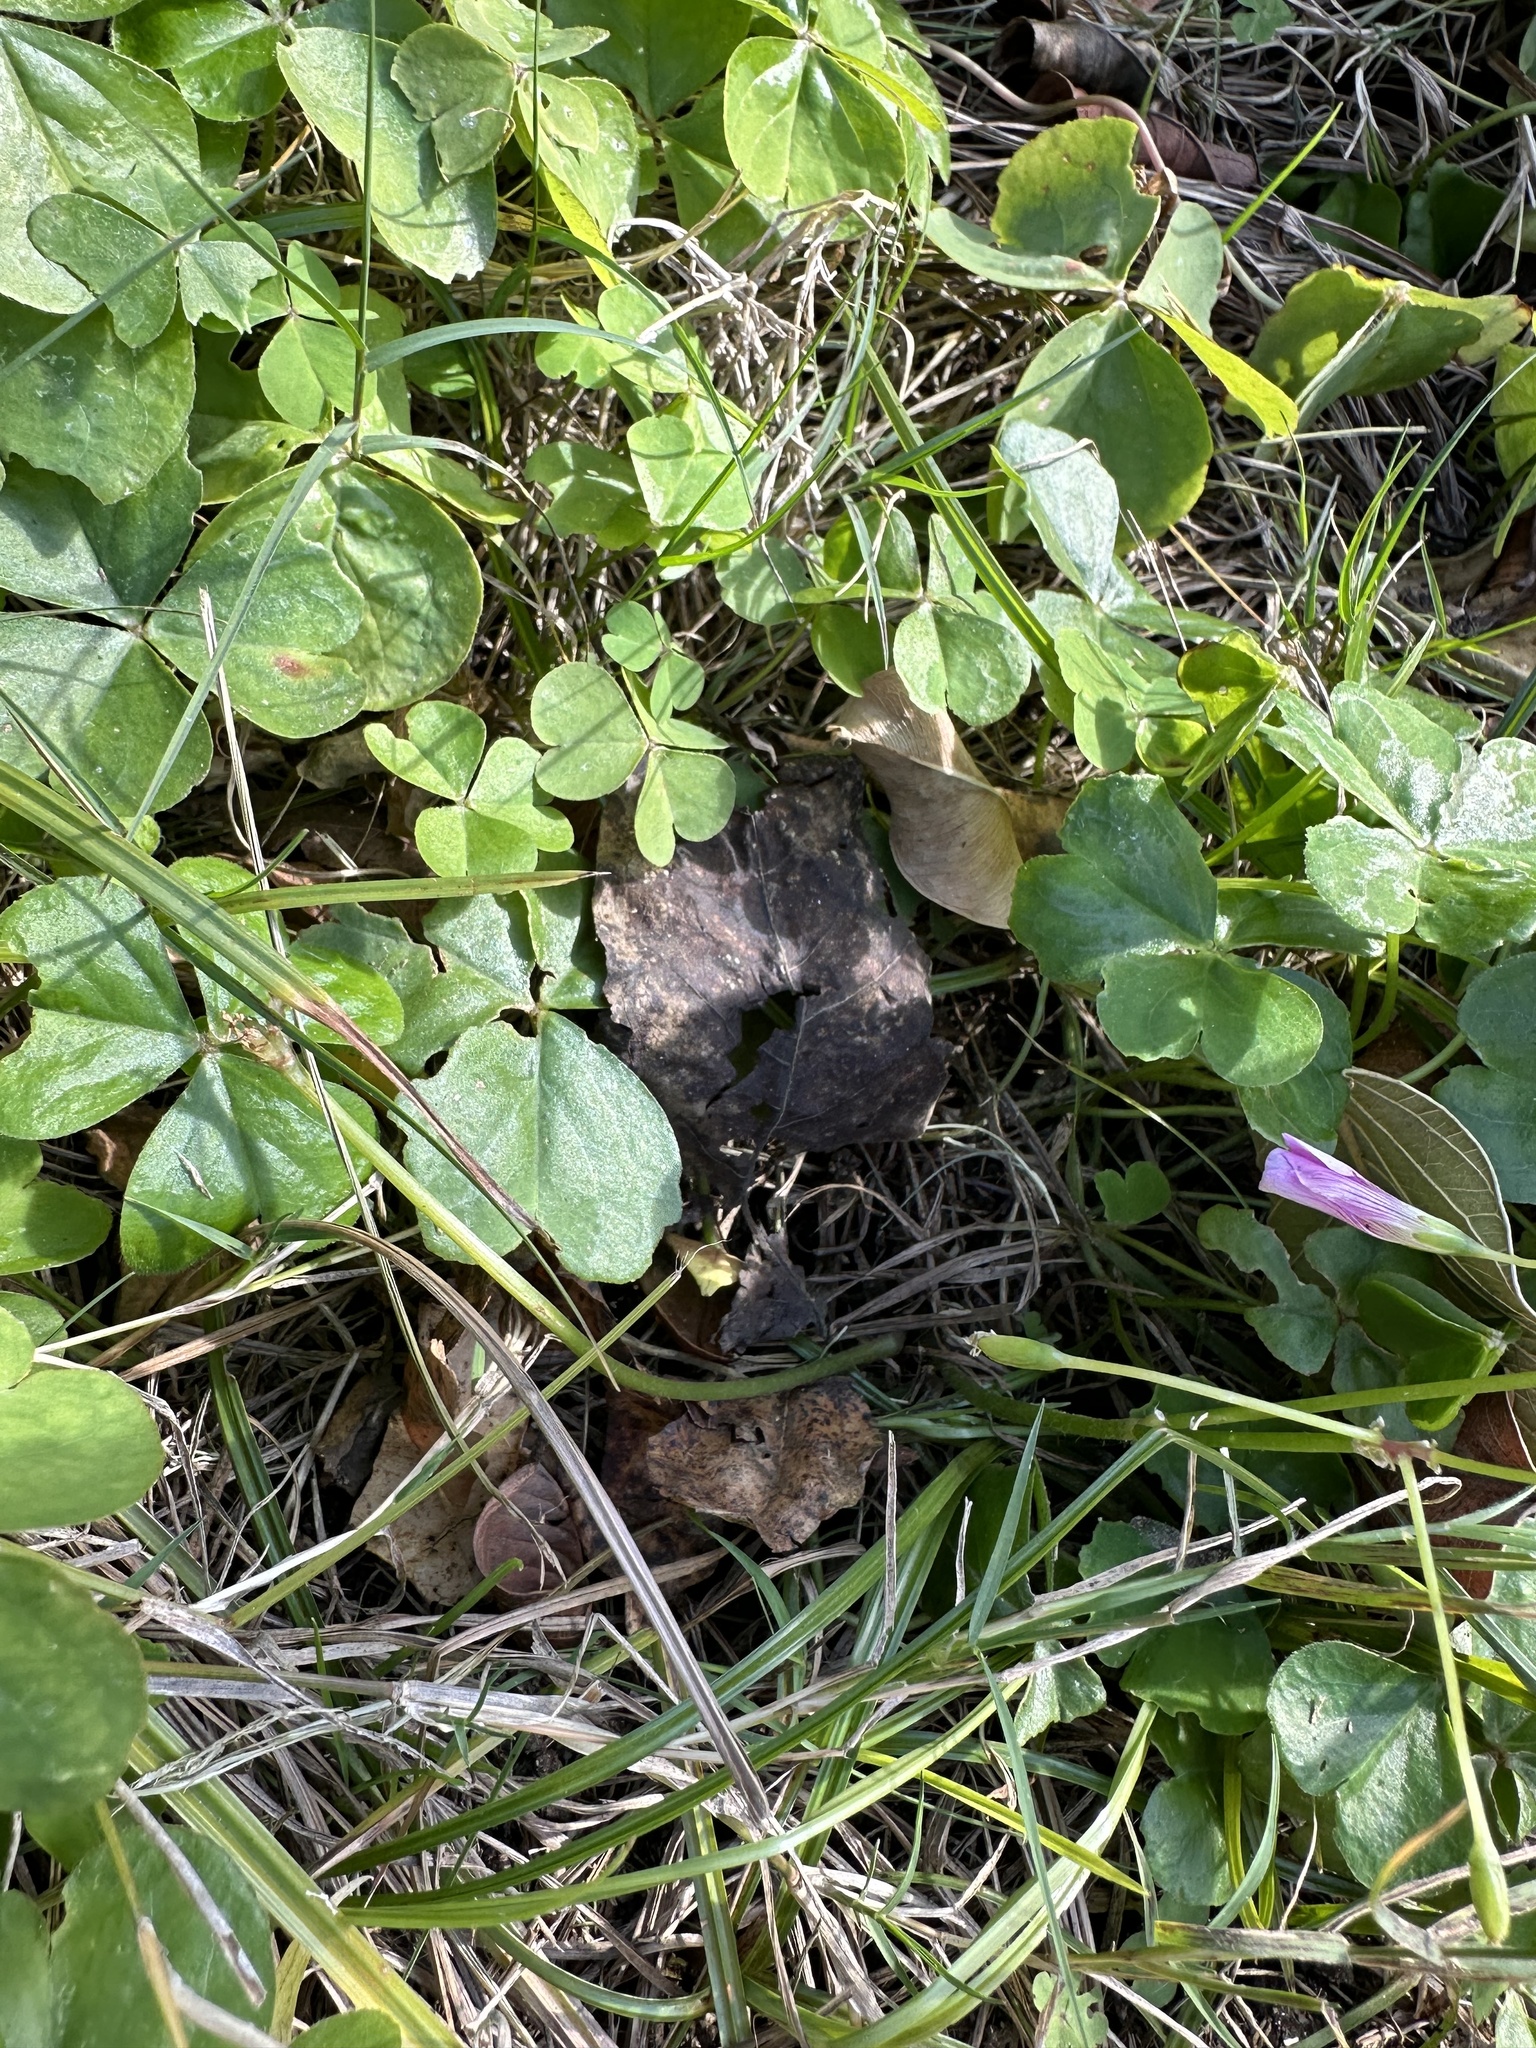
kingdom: Plantae
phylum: Tracheophyta
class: Magnoliopsida
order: Oxalidales
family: Oxalidaceae
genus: Oxalis
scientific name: Oxalis debilis
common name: Large-flowered pink-sorrel
